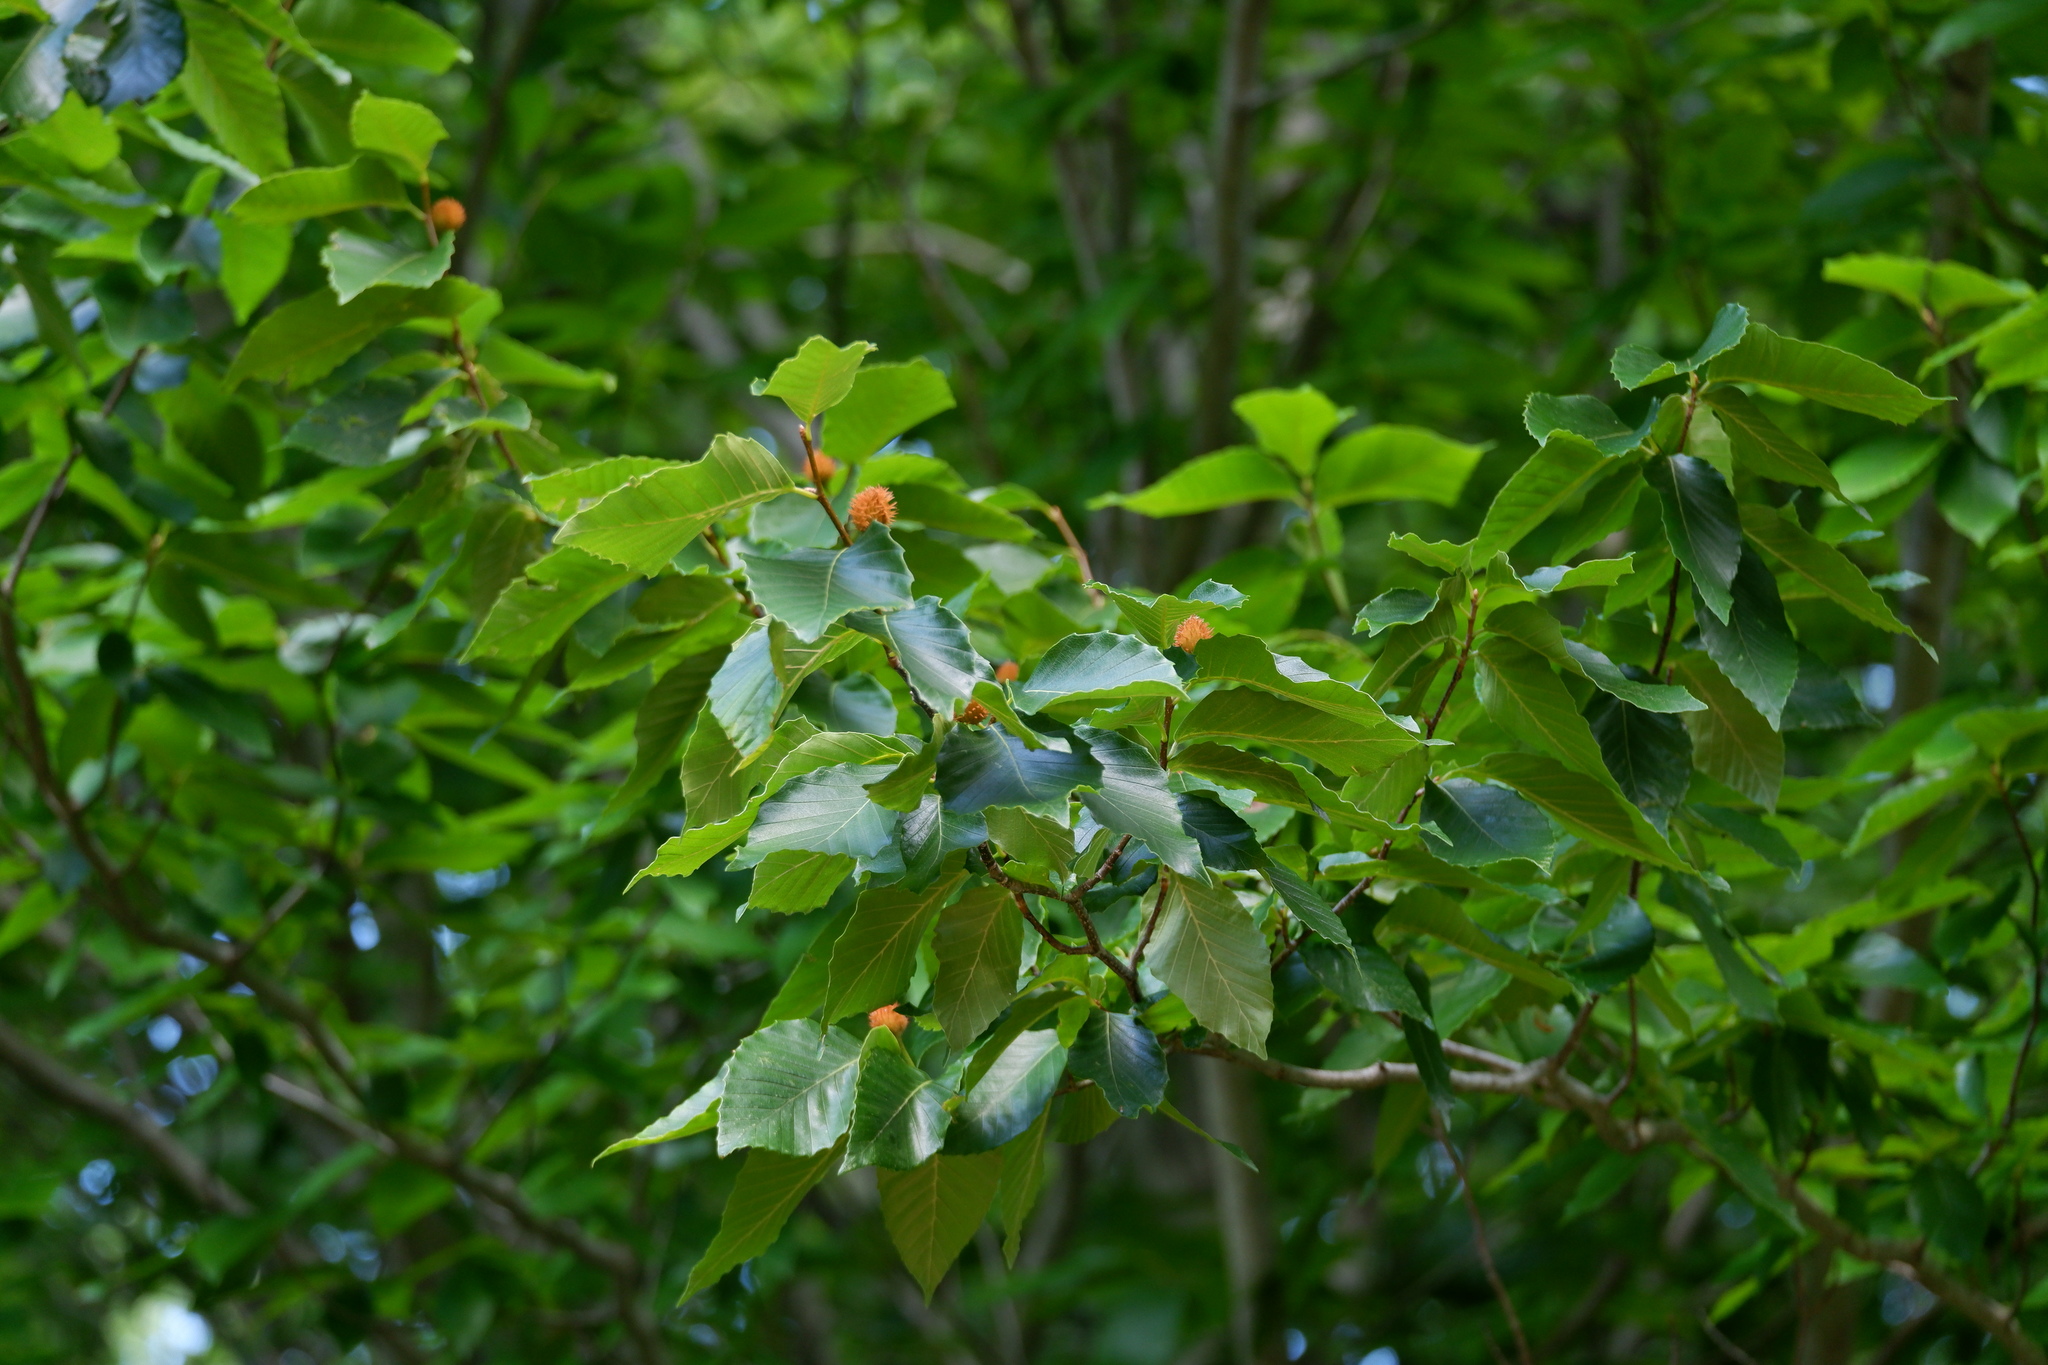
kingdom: Plantae
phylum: Tracheophyta
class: Magnoliopsida
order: Fagales
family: Fagaceae
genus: Fagus
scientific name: Fagus grandifolia
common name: American beech
